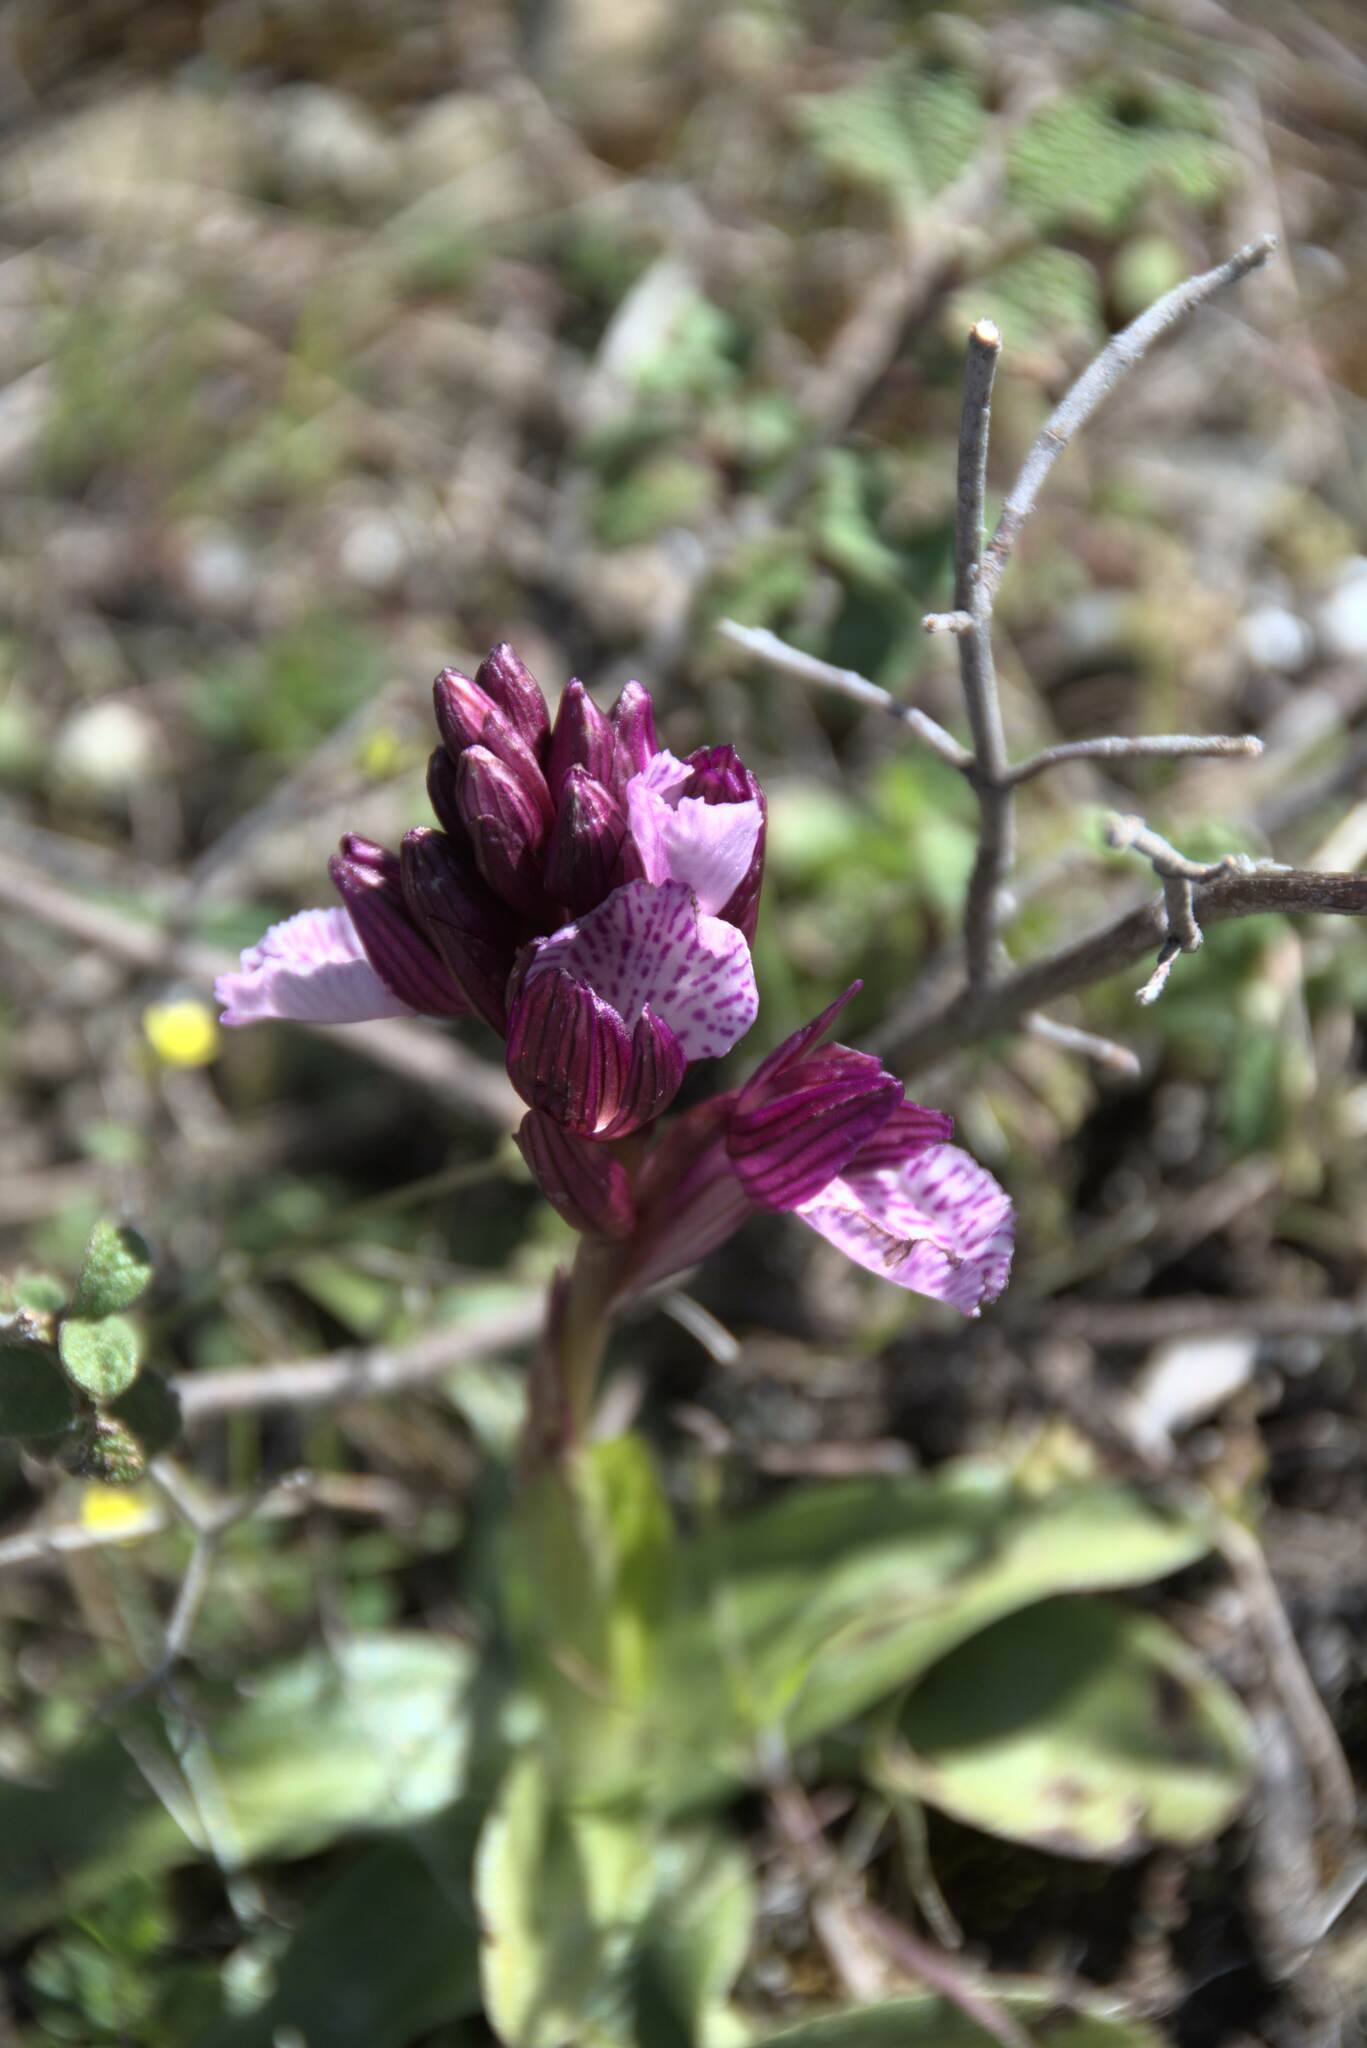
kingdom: Plantae
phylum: Tracheophyta
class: Liliopsida
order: Asparagales
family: Orchidaceae
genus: Anacamptis
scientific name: Anacamptis papilionacea
